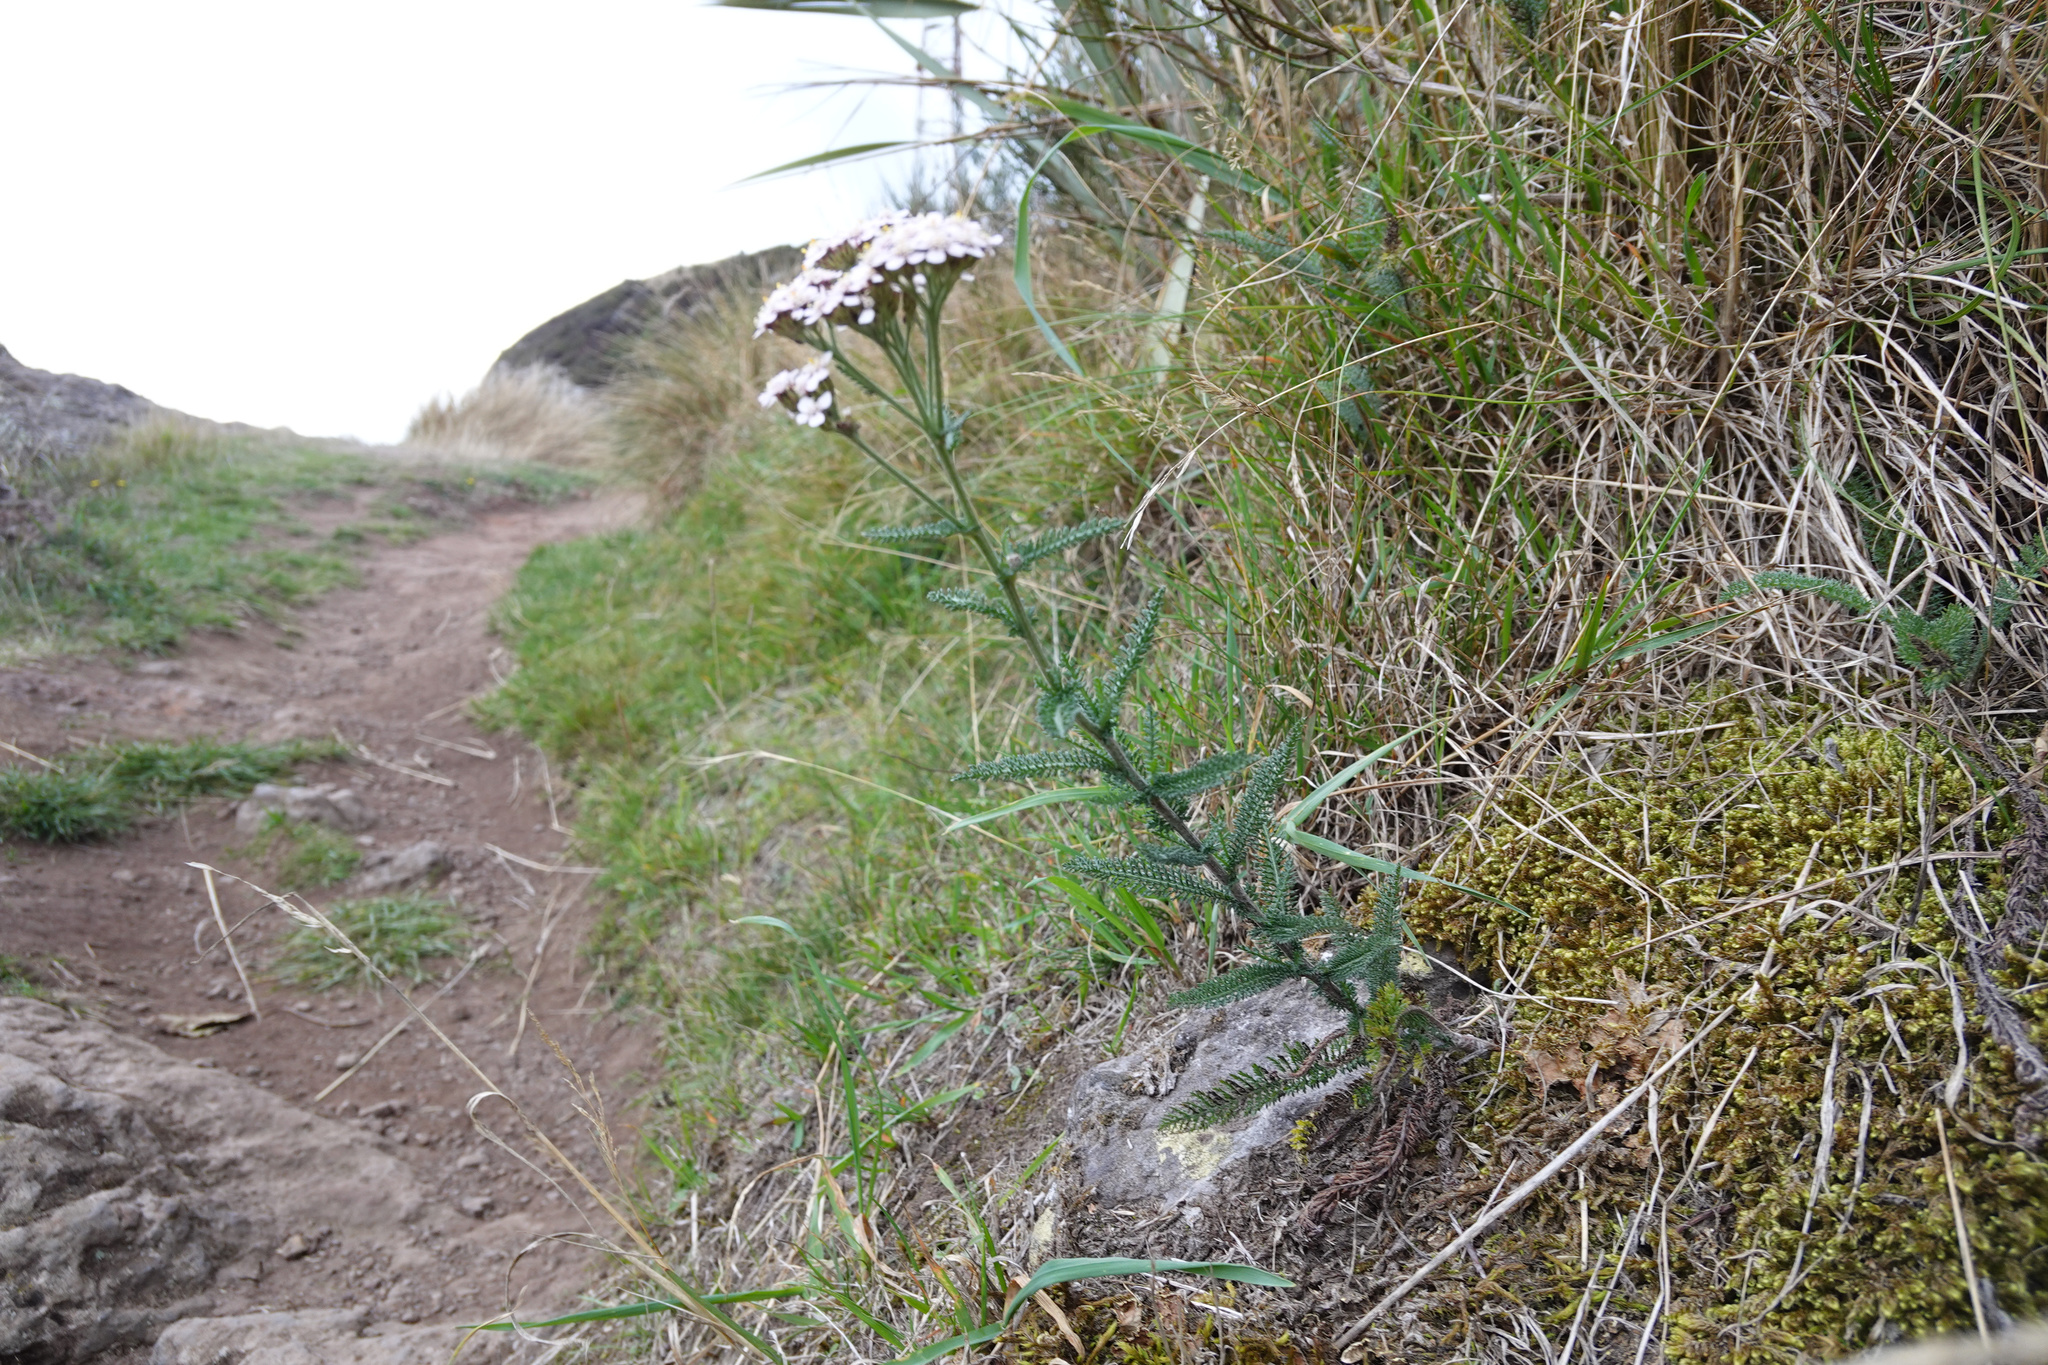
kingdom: Plantae
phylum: Tracheophyta
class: Magnoliopsida
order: Asterales
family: Asteraceae
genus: Achillea
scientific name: Achillea millefolium
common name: Yarrow
